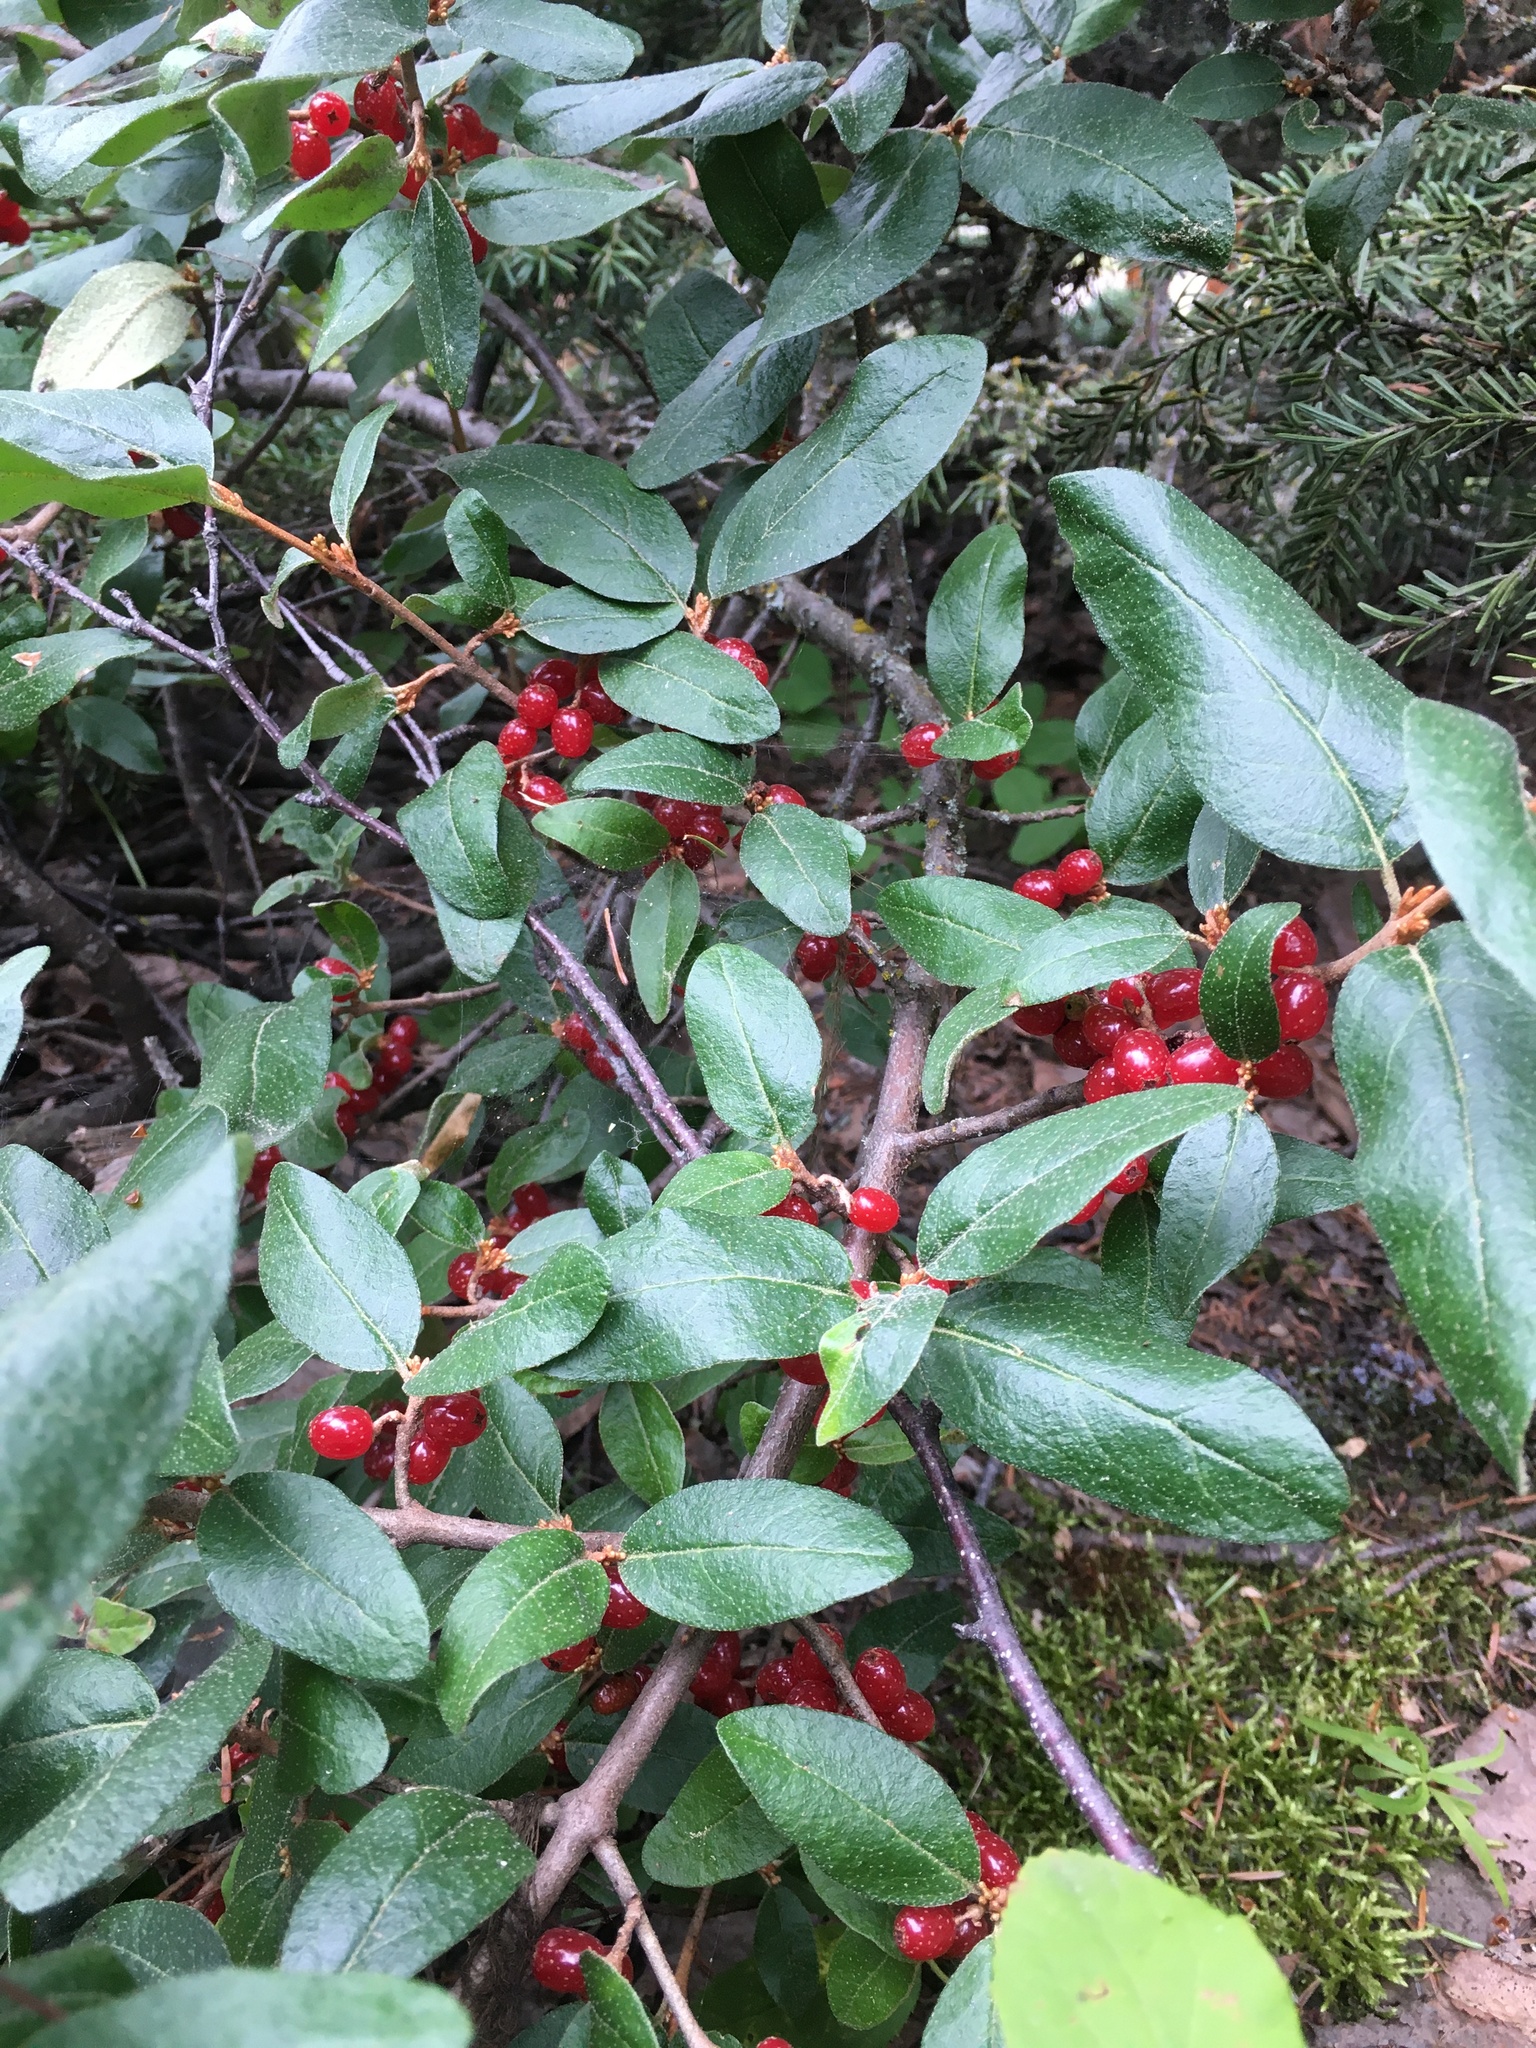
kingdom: Plantae
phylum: Tracheophyta
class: Magnoliopsida
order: Rosales
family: Elaeagnaceae
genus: Shepherdia
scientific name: Shepherdia canadensis
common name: Soapberry
